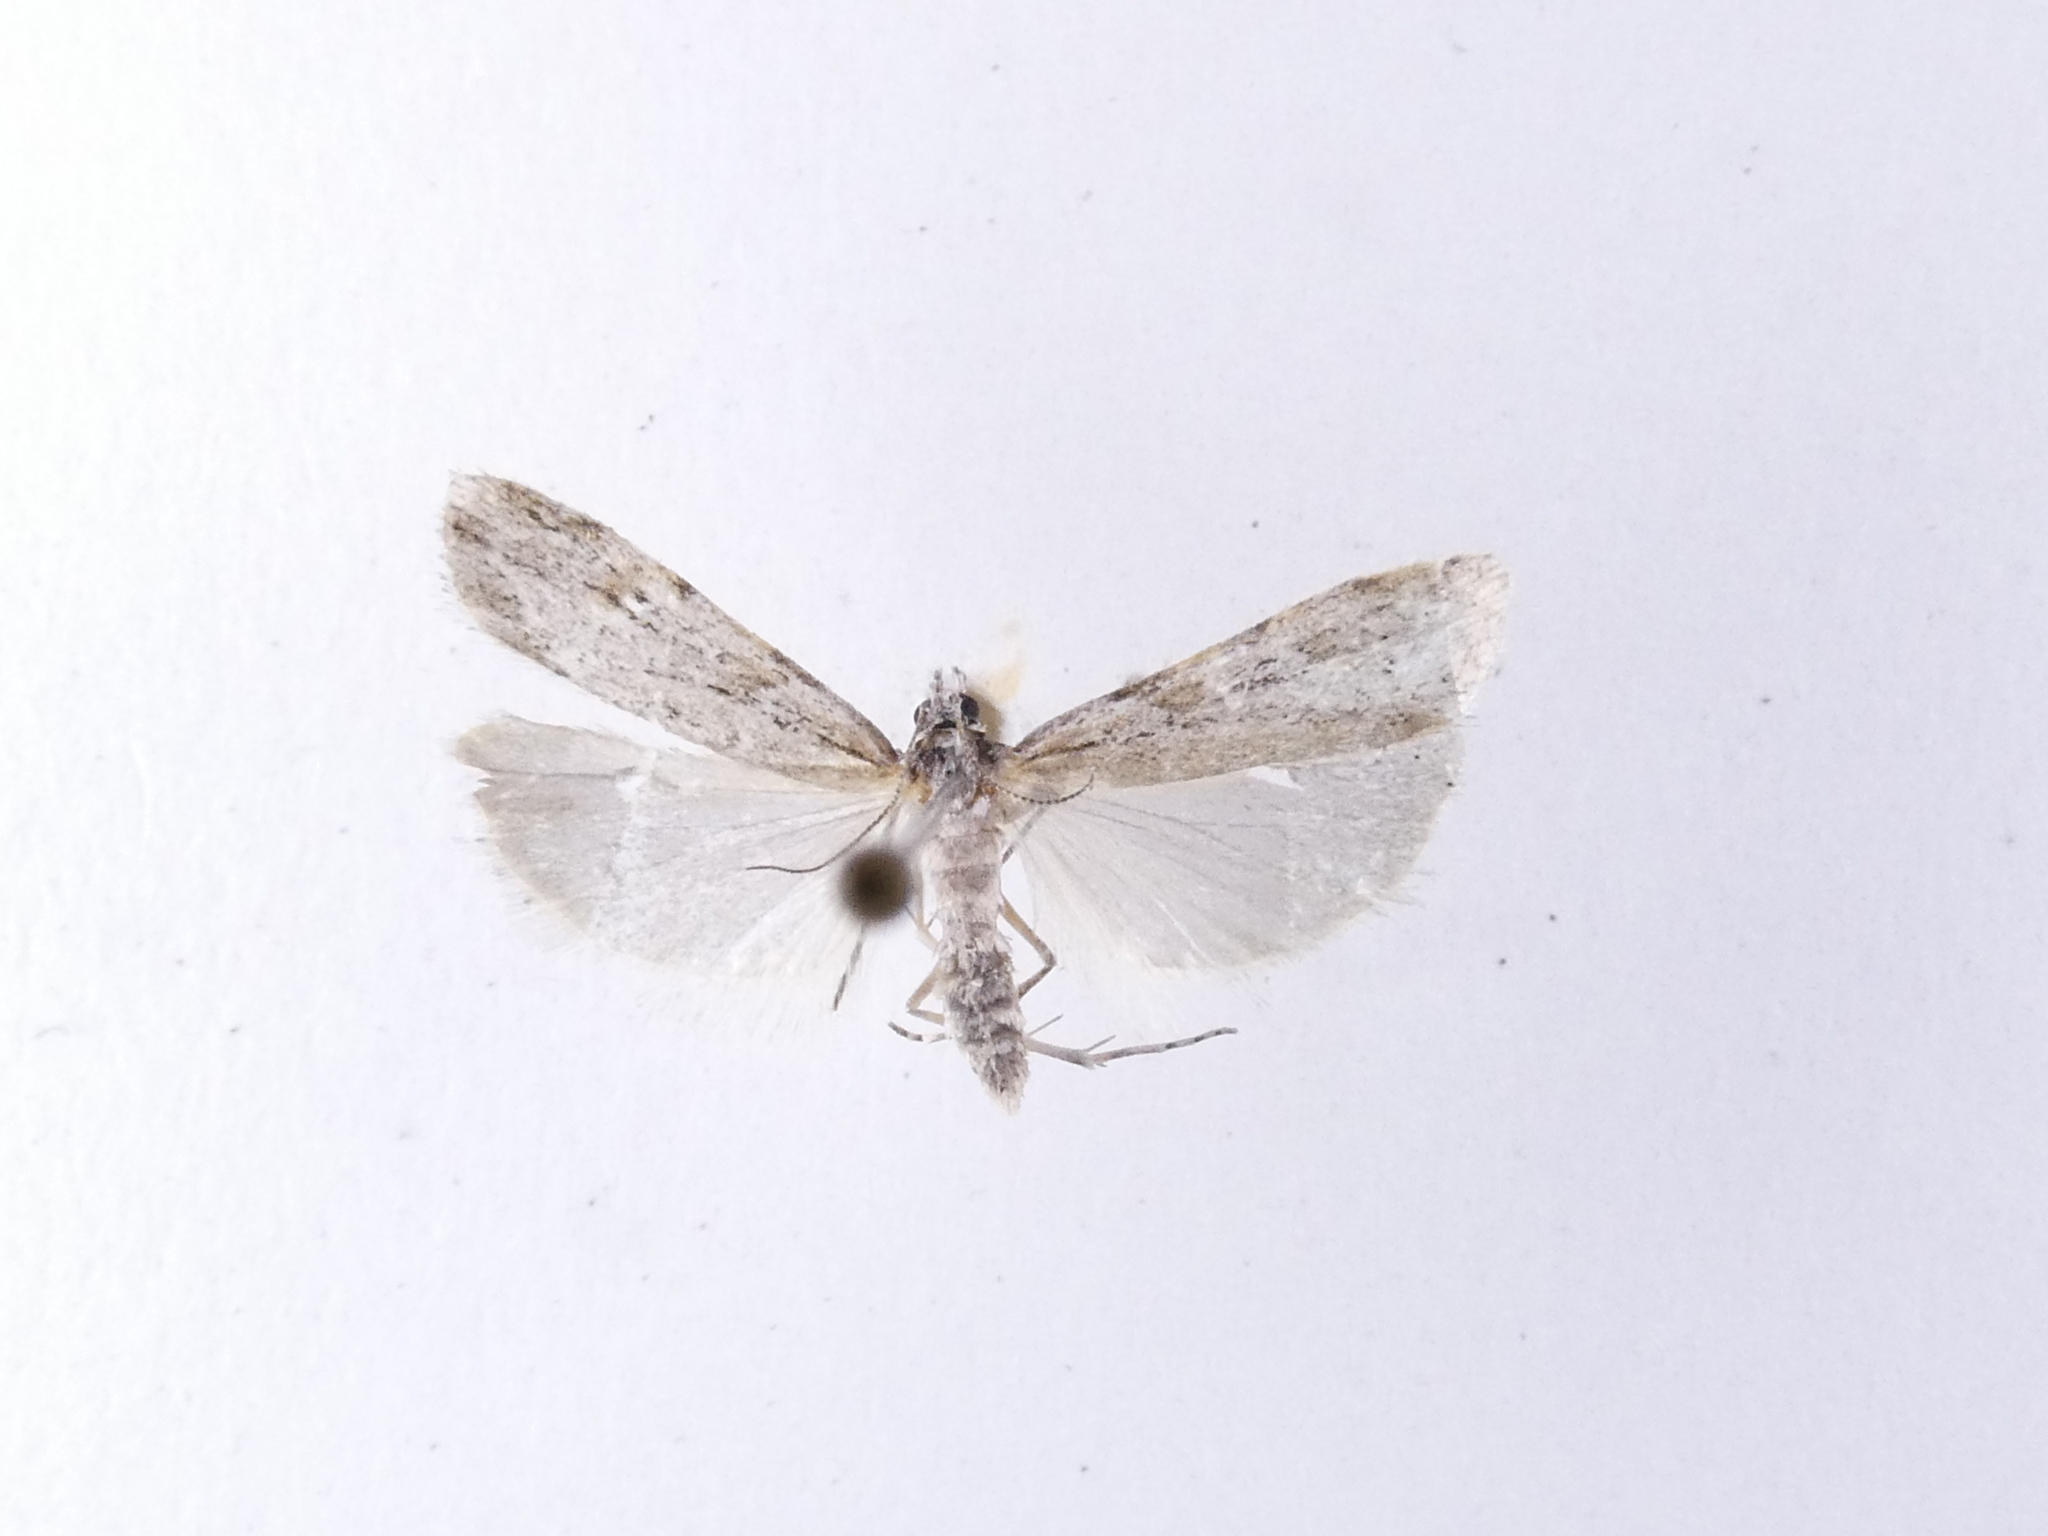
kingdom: Animalia
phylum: Arthropoda
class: Insecta
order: Lepidoptera
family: Crambidae
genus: Scoparia
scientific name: Scoparia chalicodes
